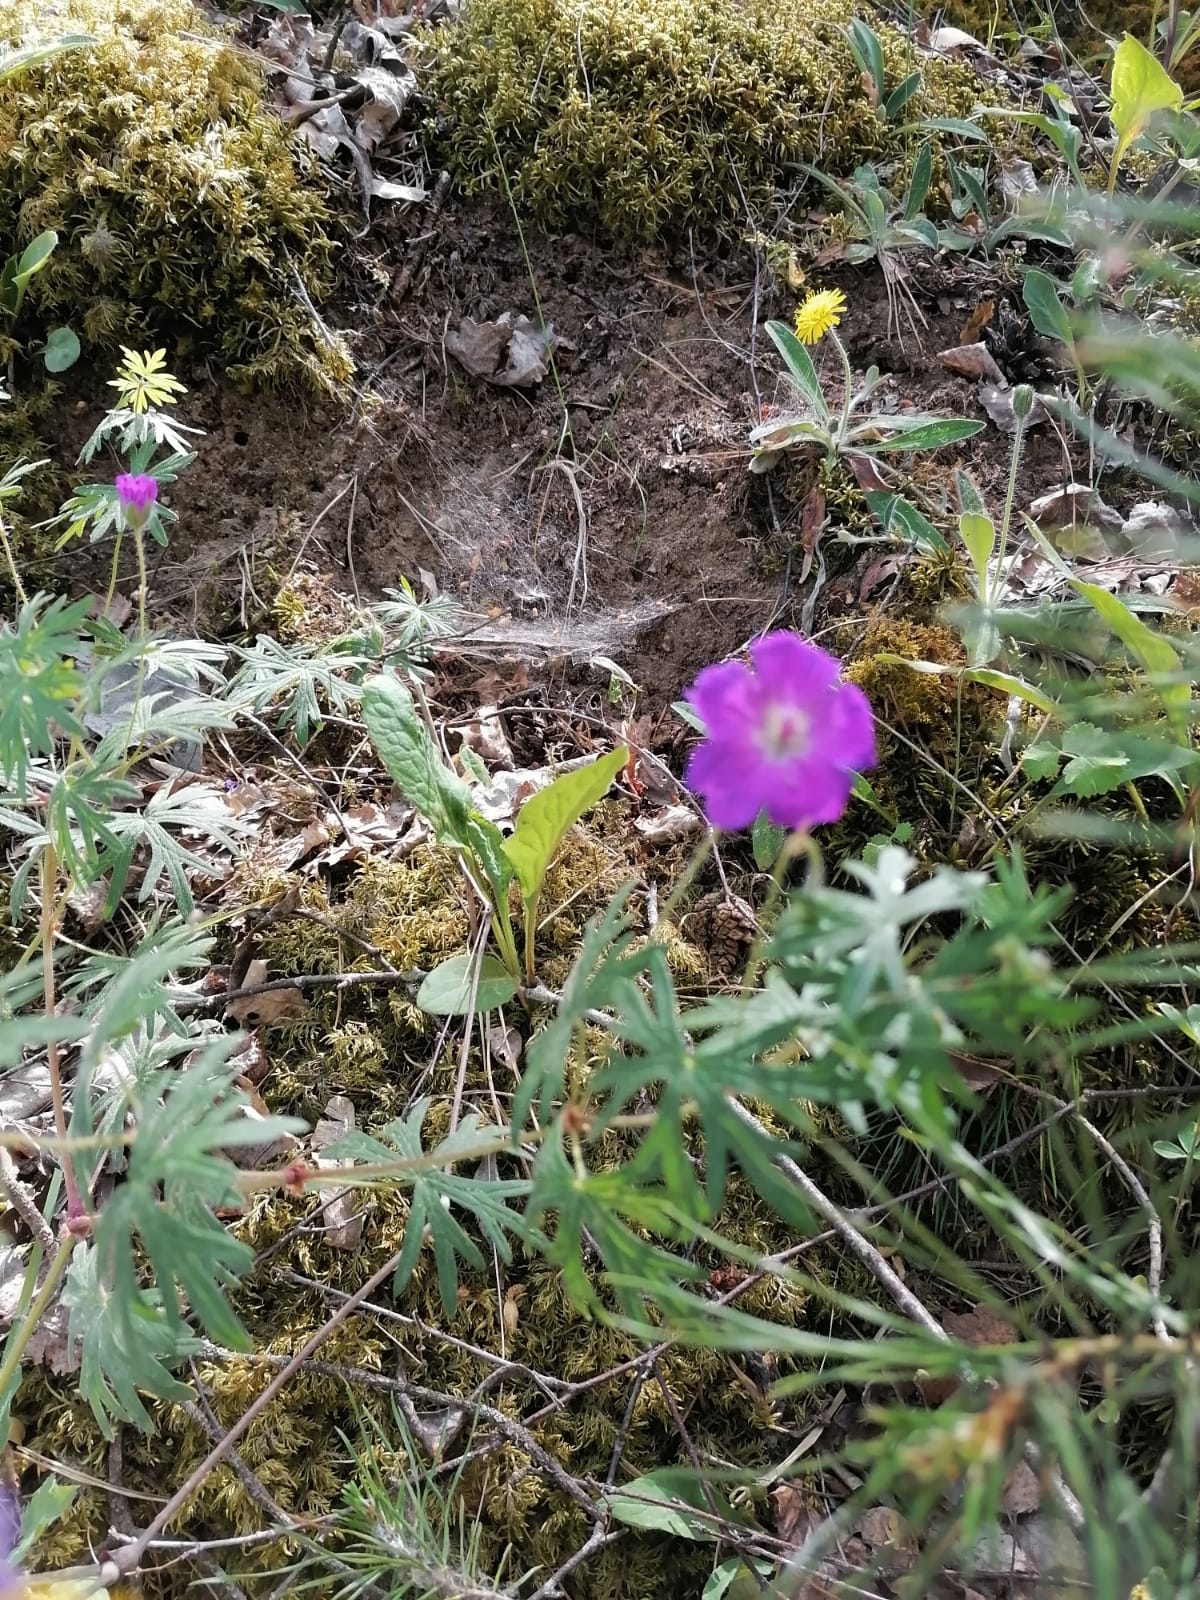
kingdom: Plantae
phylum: Tracheophyta
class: Magnoliopsida
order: Geraniales
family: Geraniaceae
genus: Geranium
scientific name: Geranium sanguineum
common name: Bloody crane's-bill
